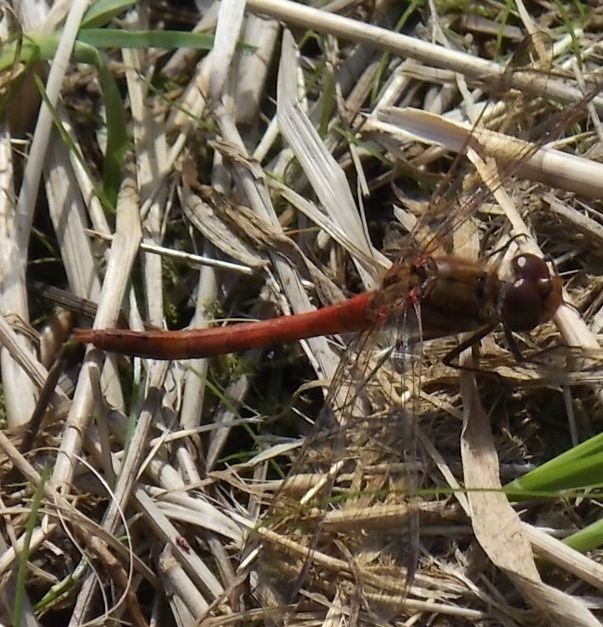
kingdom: Animalia
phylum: Arthropoda
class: Insecta
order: Odonata
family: Libellulidae
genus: Sympetrum
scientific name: Sympetrum striolatum
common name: Common darter
